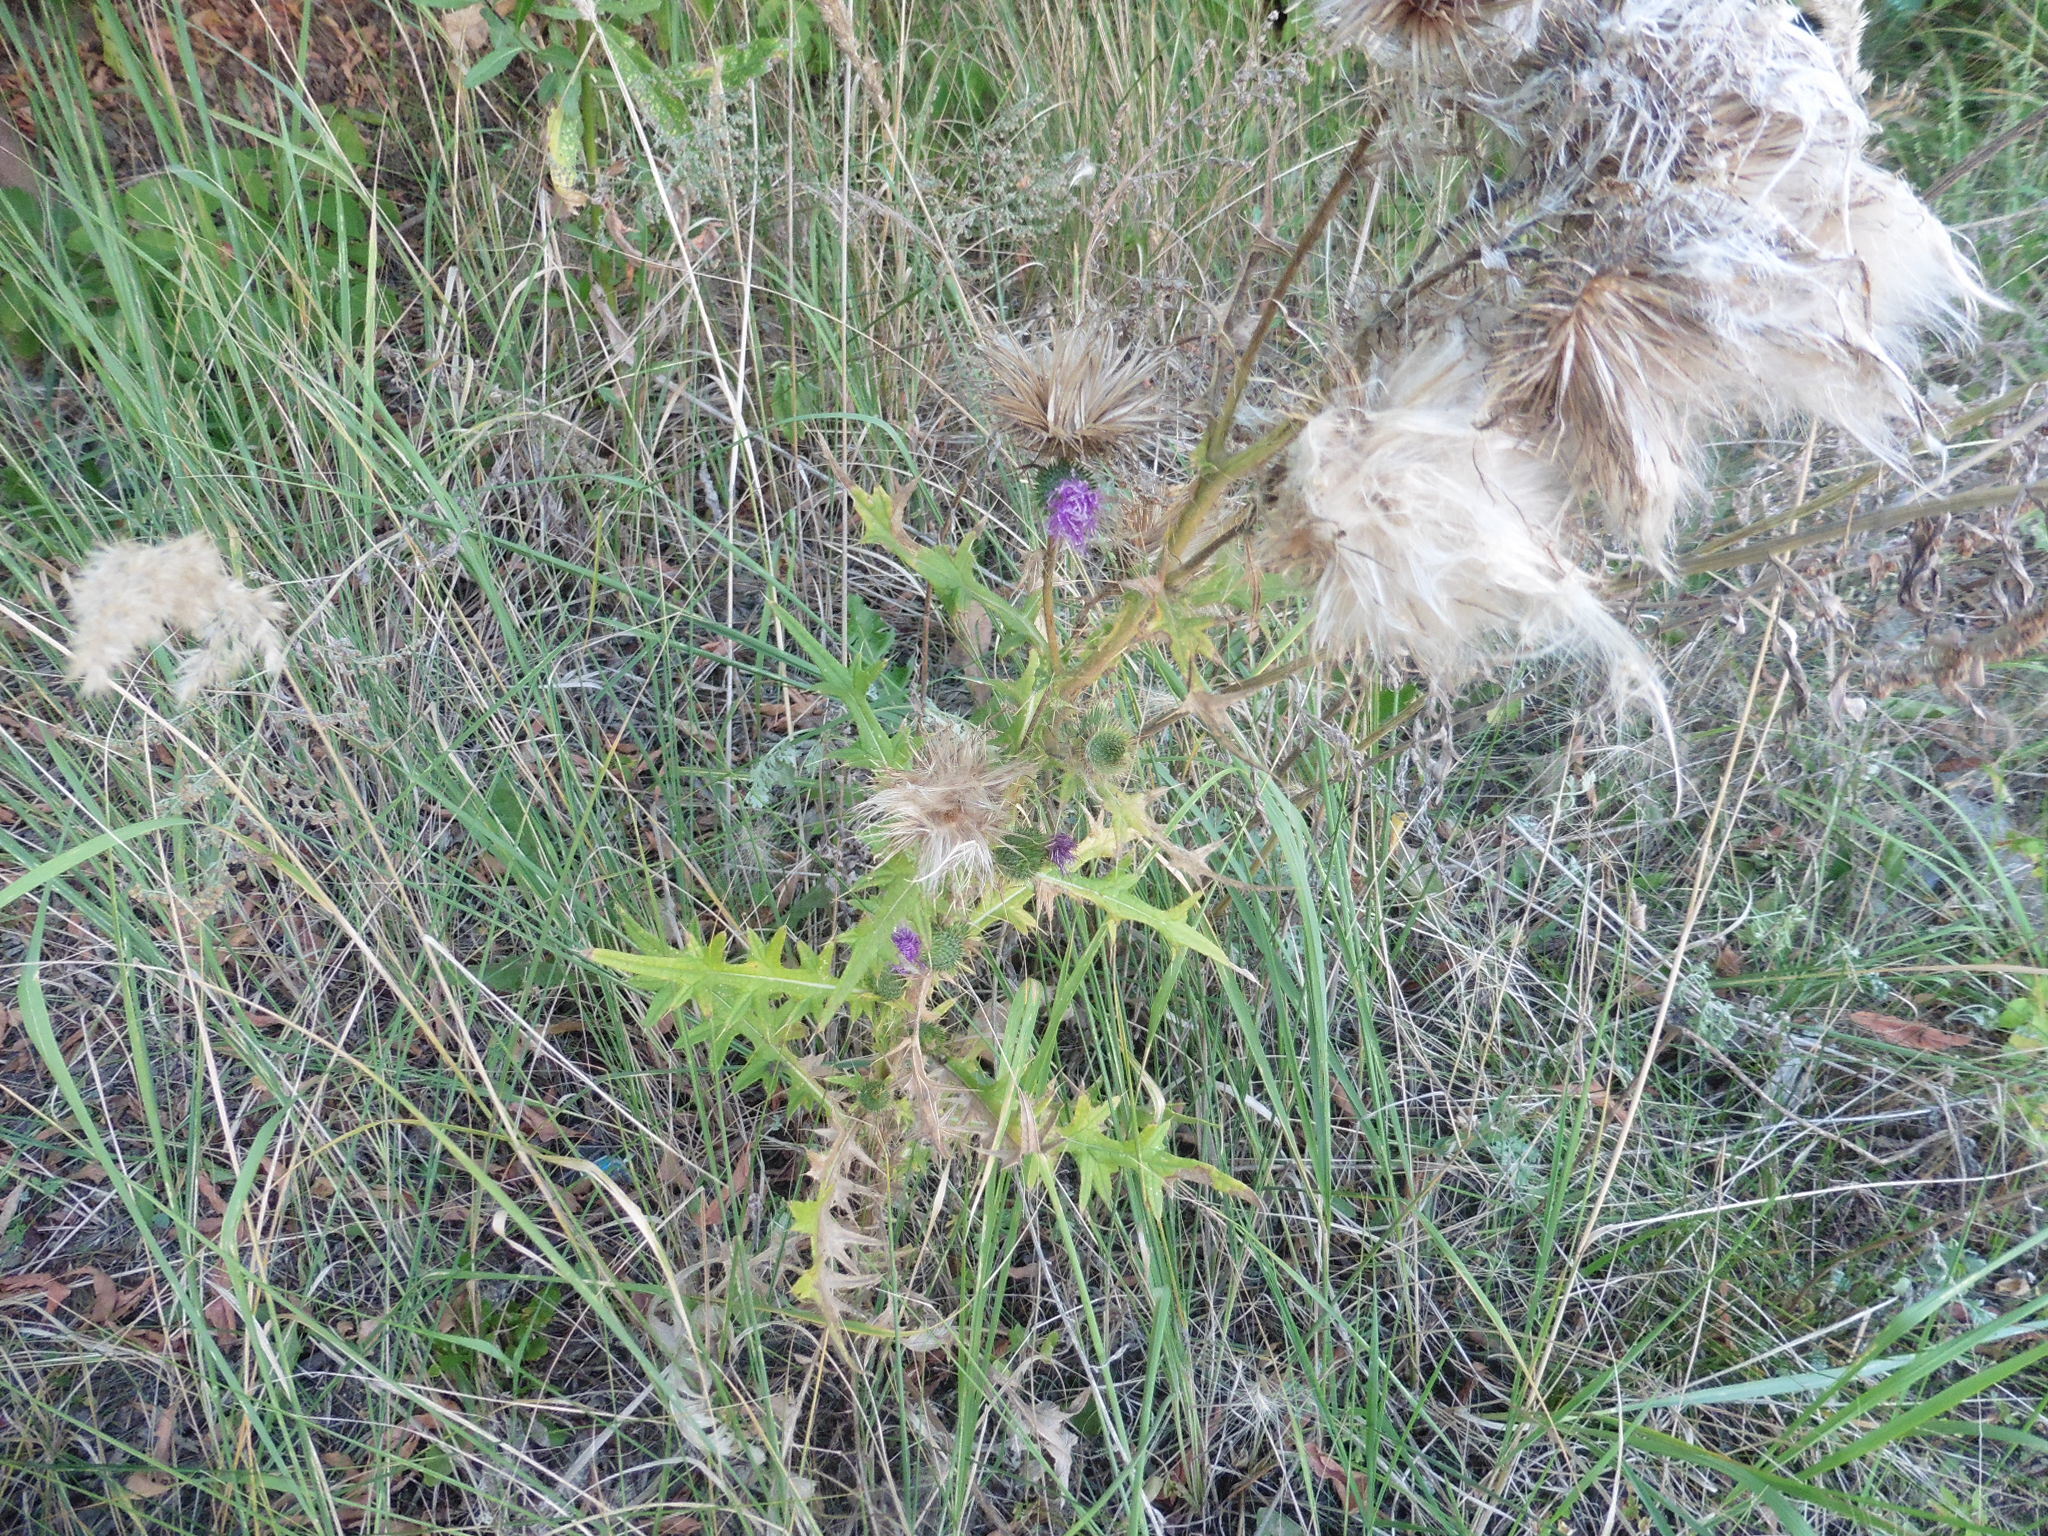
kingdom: Plantae
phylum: Tracheophyta
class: Magnoliopsida
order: Asterales
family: Asteraceae
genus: Cirsium
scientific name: Cirsium vulgare
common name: Bull thistle
